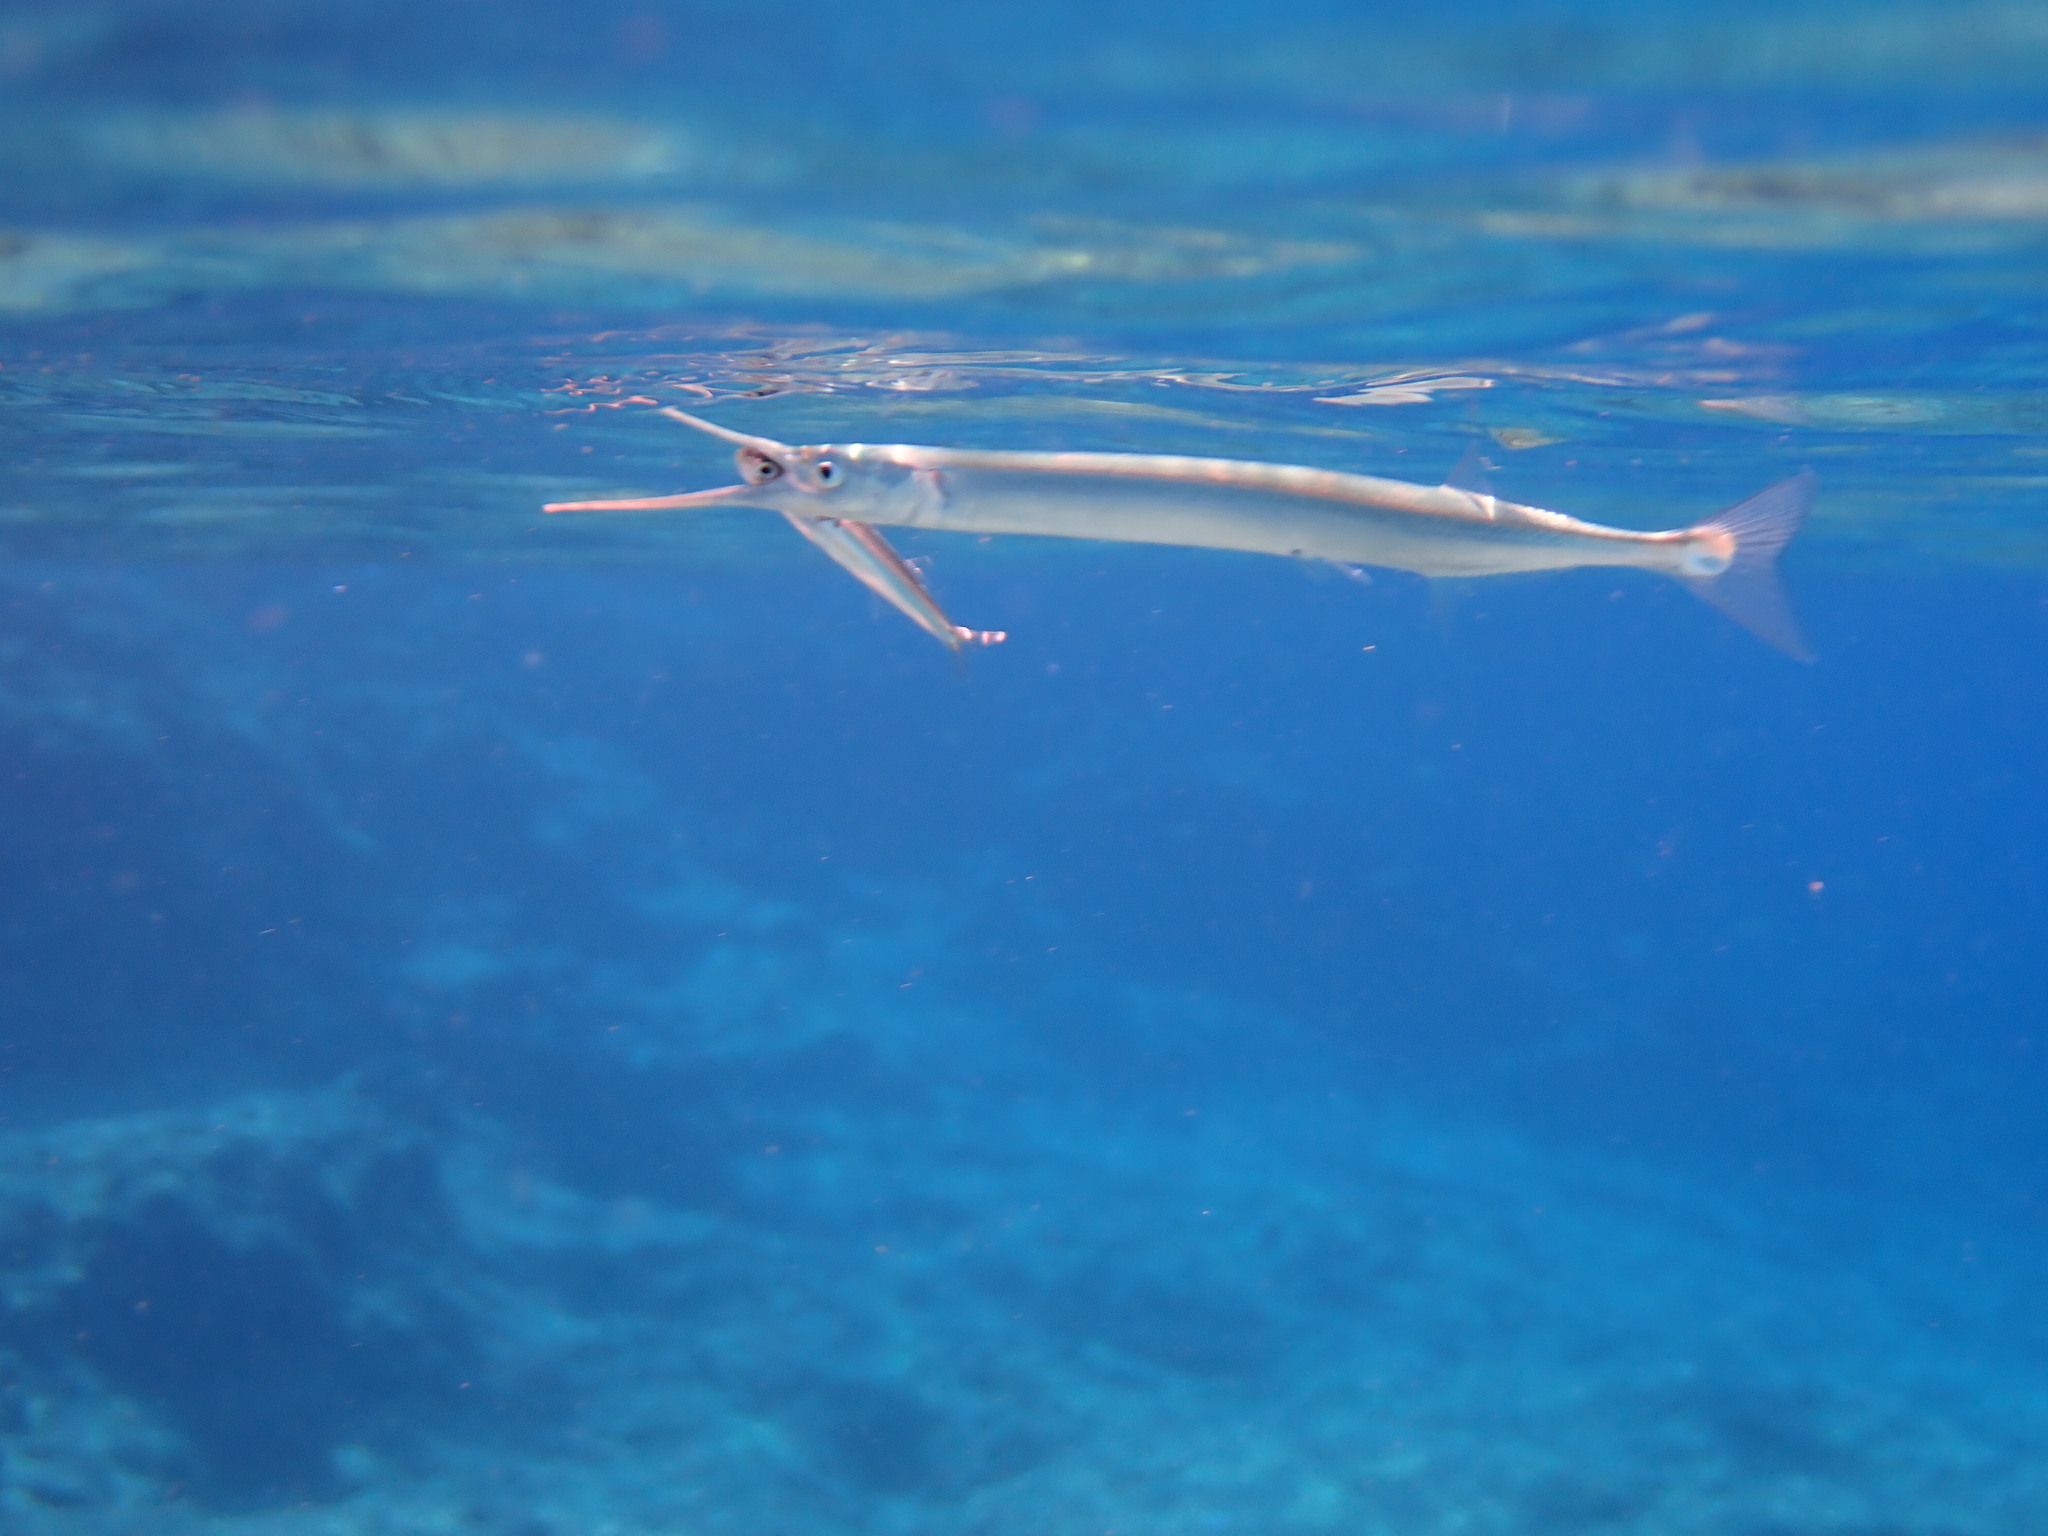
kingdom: Animalia
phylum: Chordata
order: Beloniformes
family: Belonidae
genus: Belone
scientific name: Belone belone
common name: Garfish
